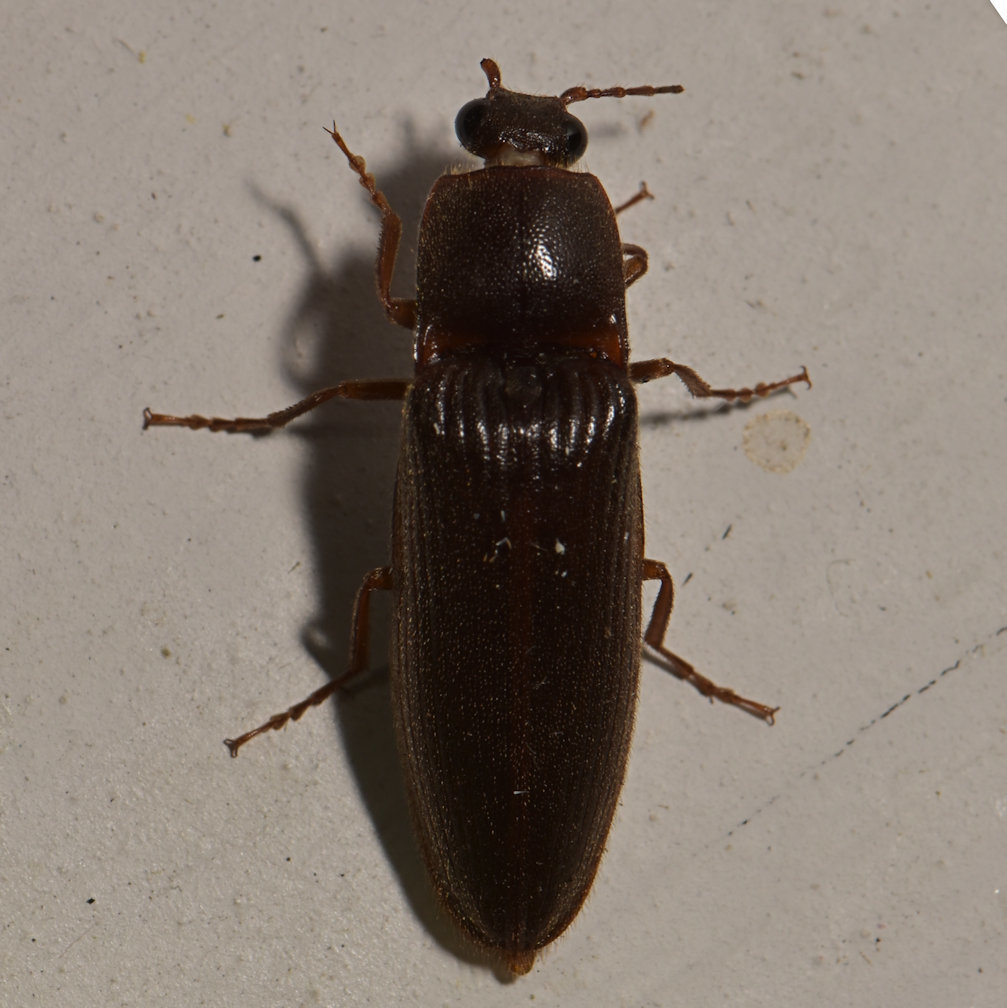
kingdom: Animalia
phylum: Arthropoda
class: Insecta
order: Coleoptera
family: Elateridae
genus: Hemicrepidius
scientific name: Hemicrepidius
